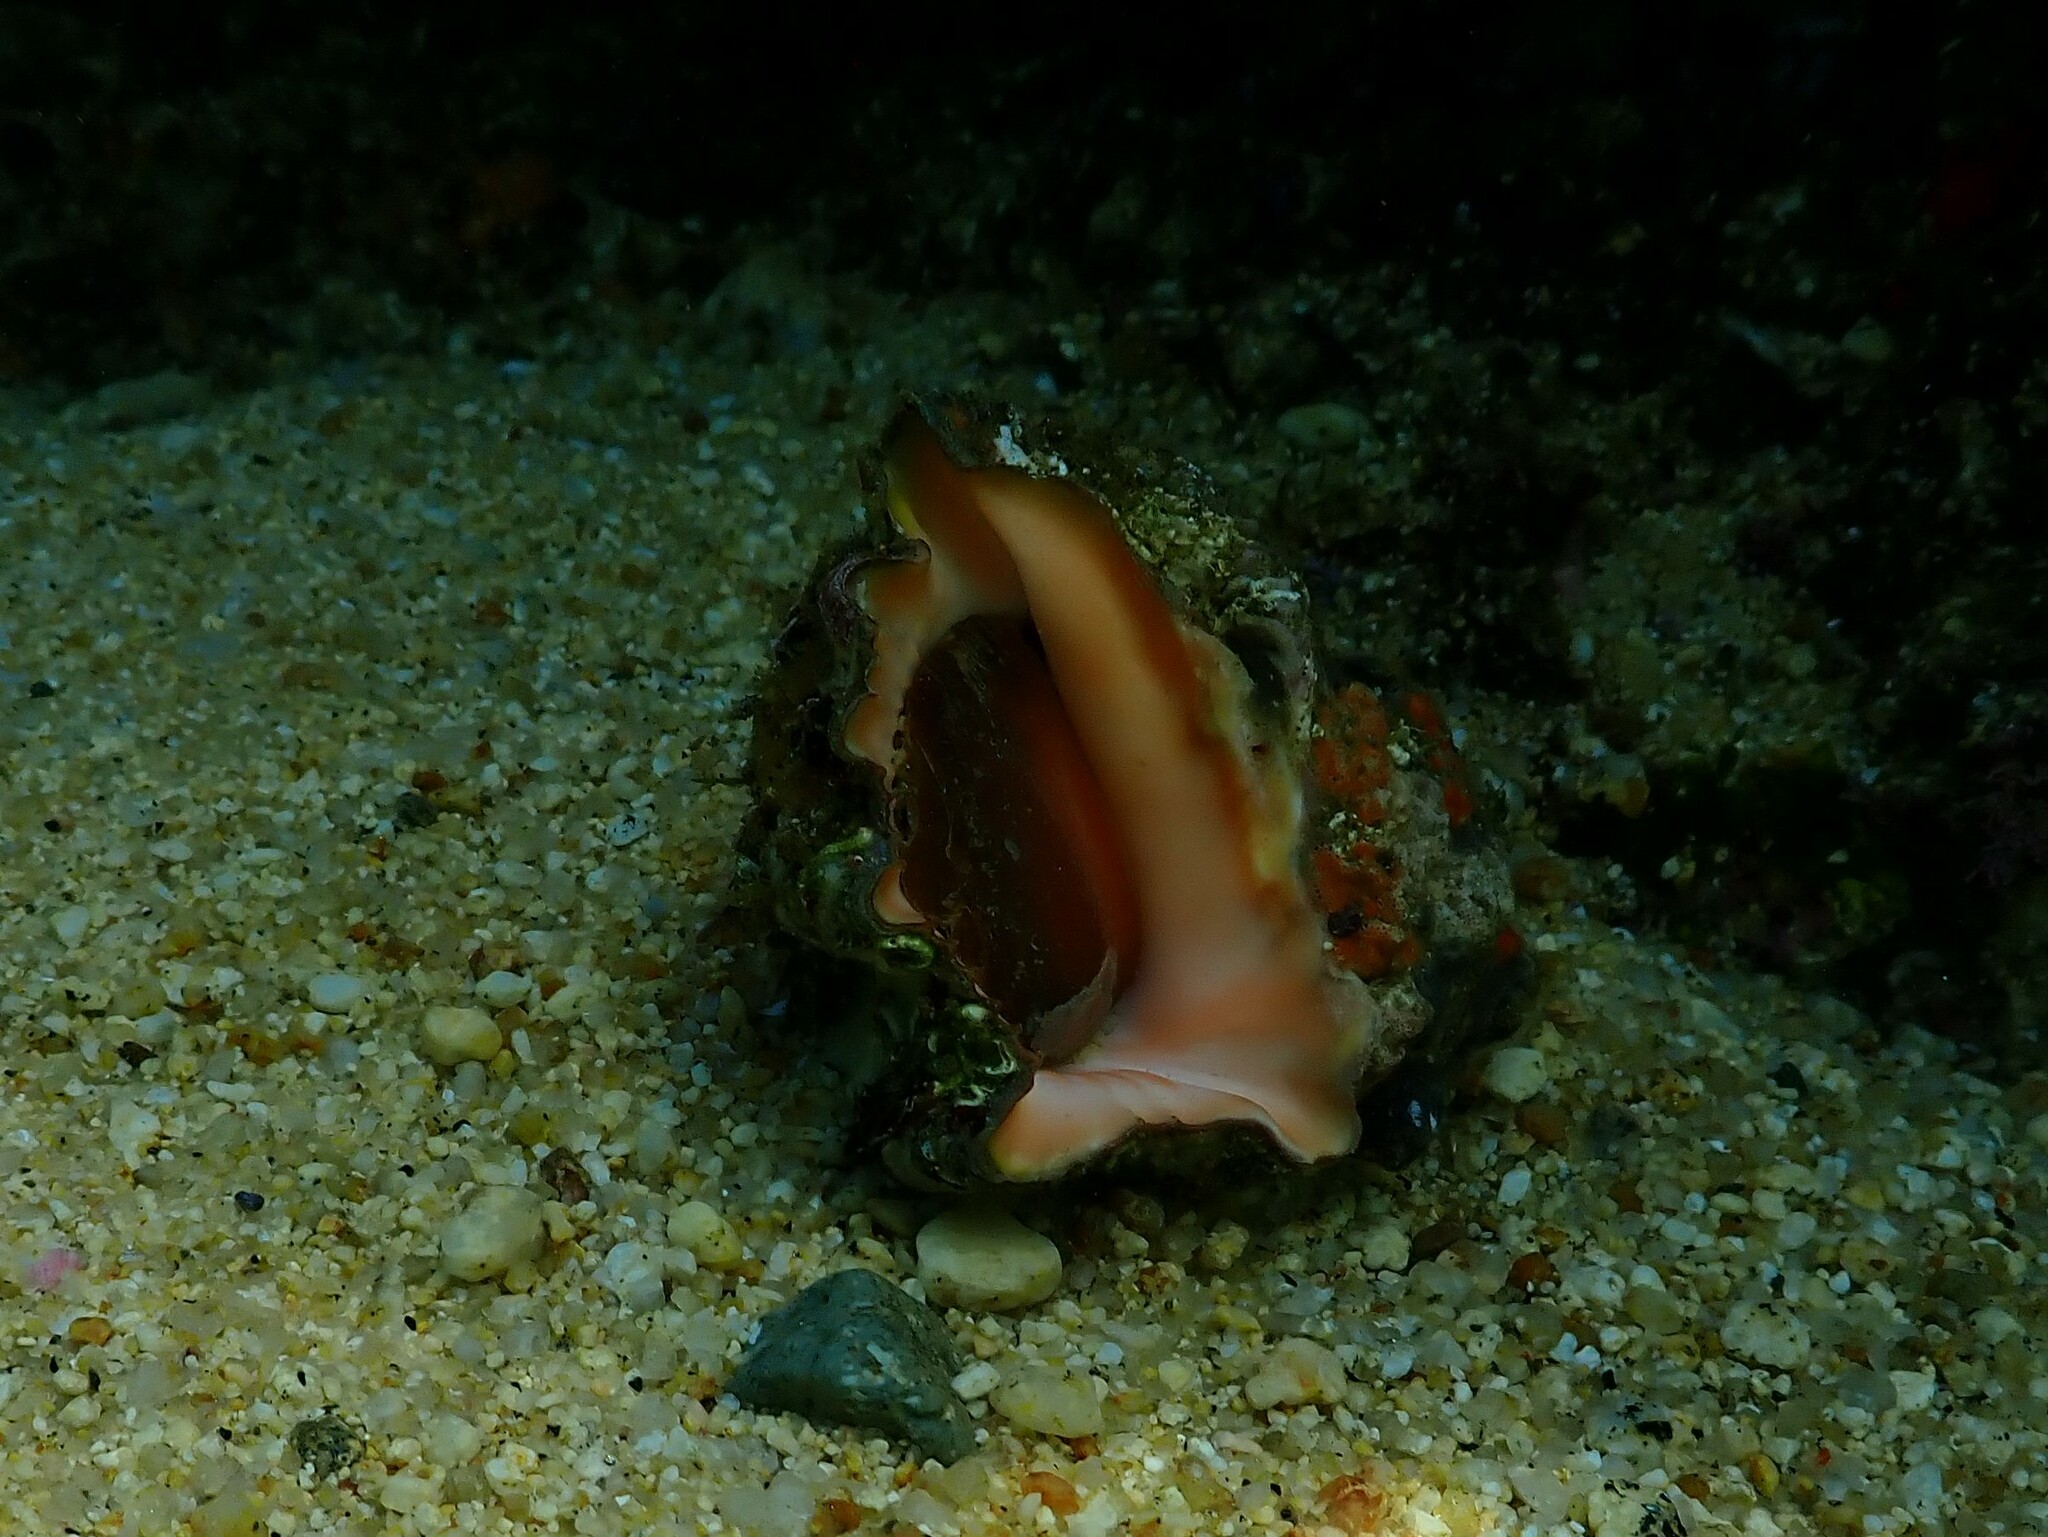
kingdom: Animalia
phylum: Mollusca
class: Gastropoda
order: Neogastropoda
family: Muricidae
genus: Neorapana
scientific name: Neorapana muricata
